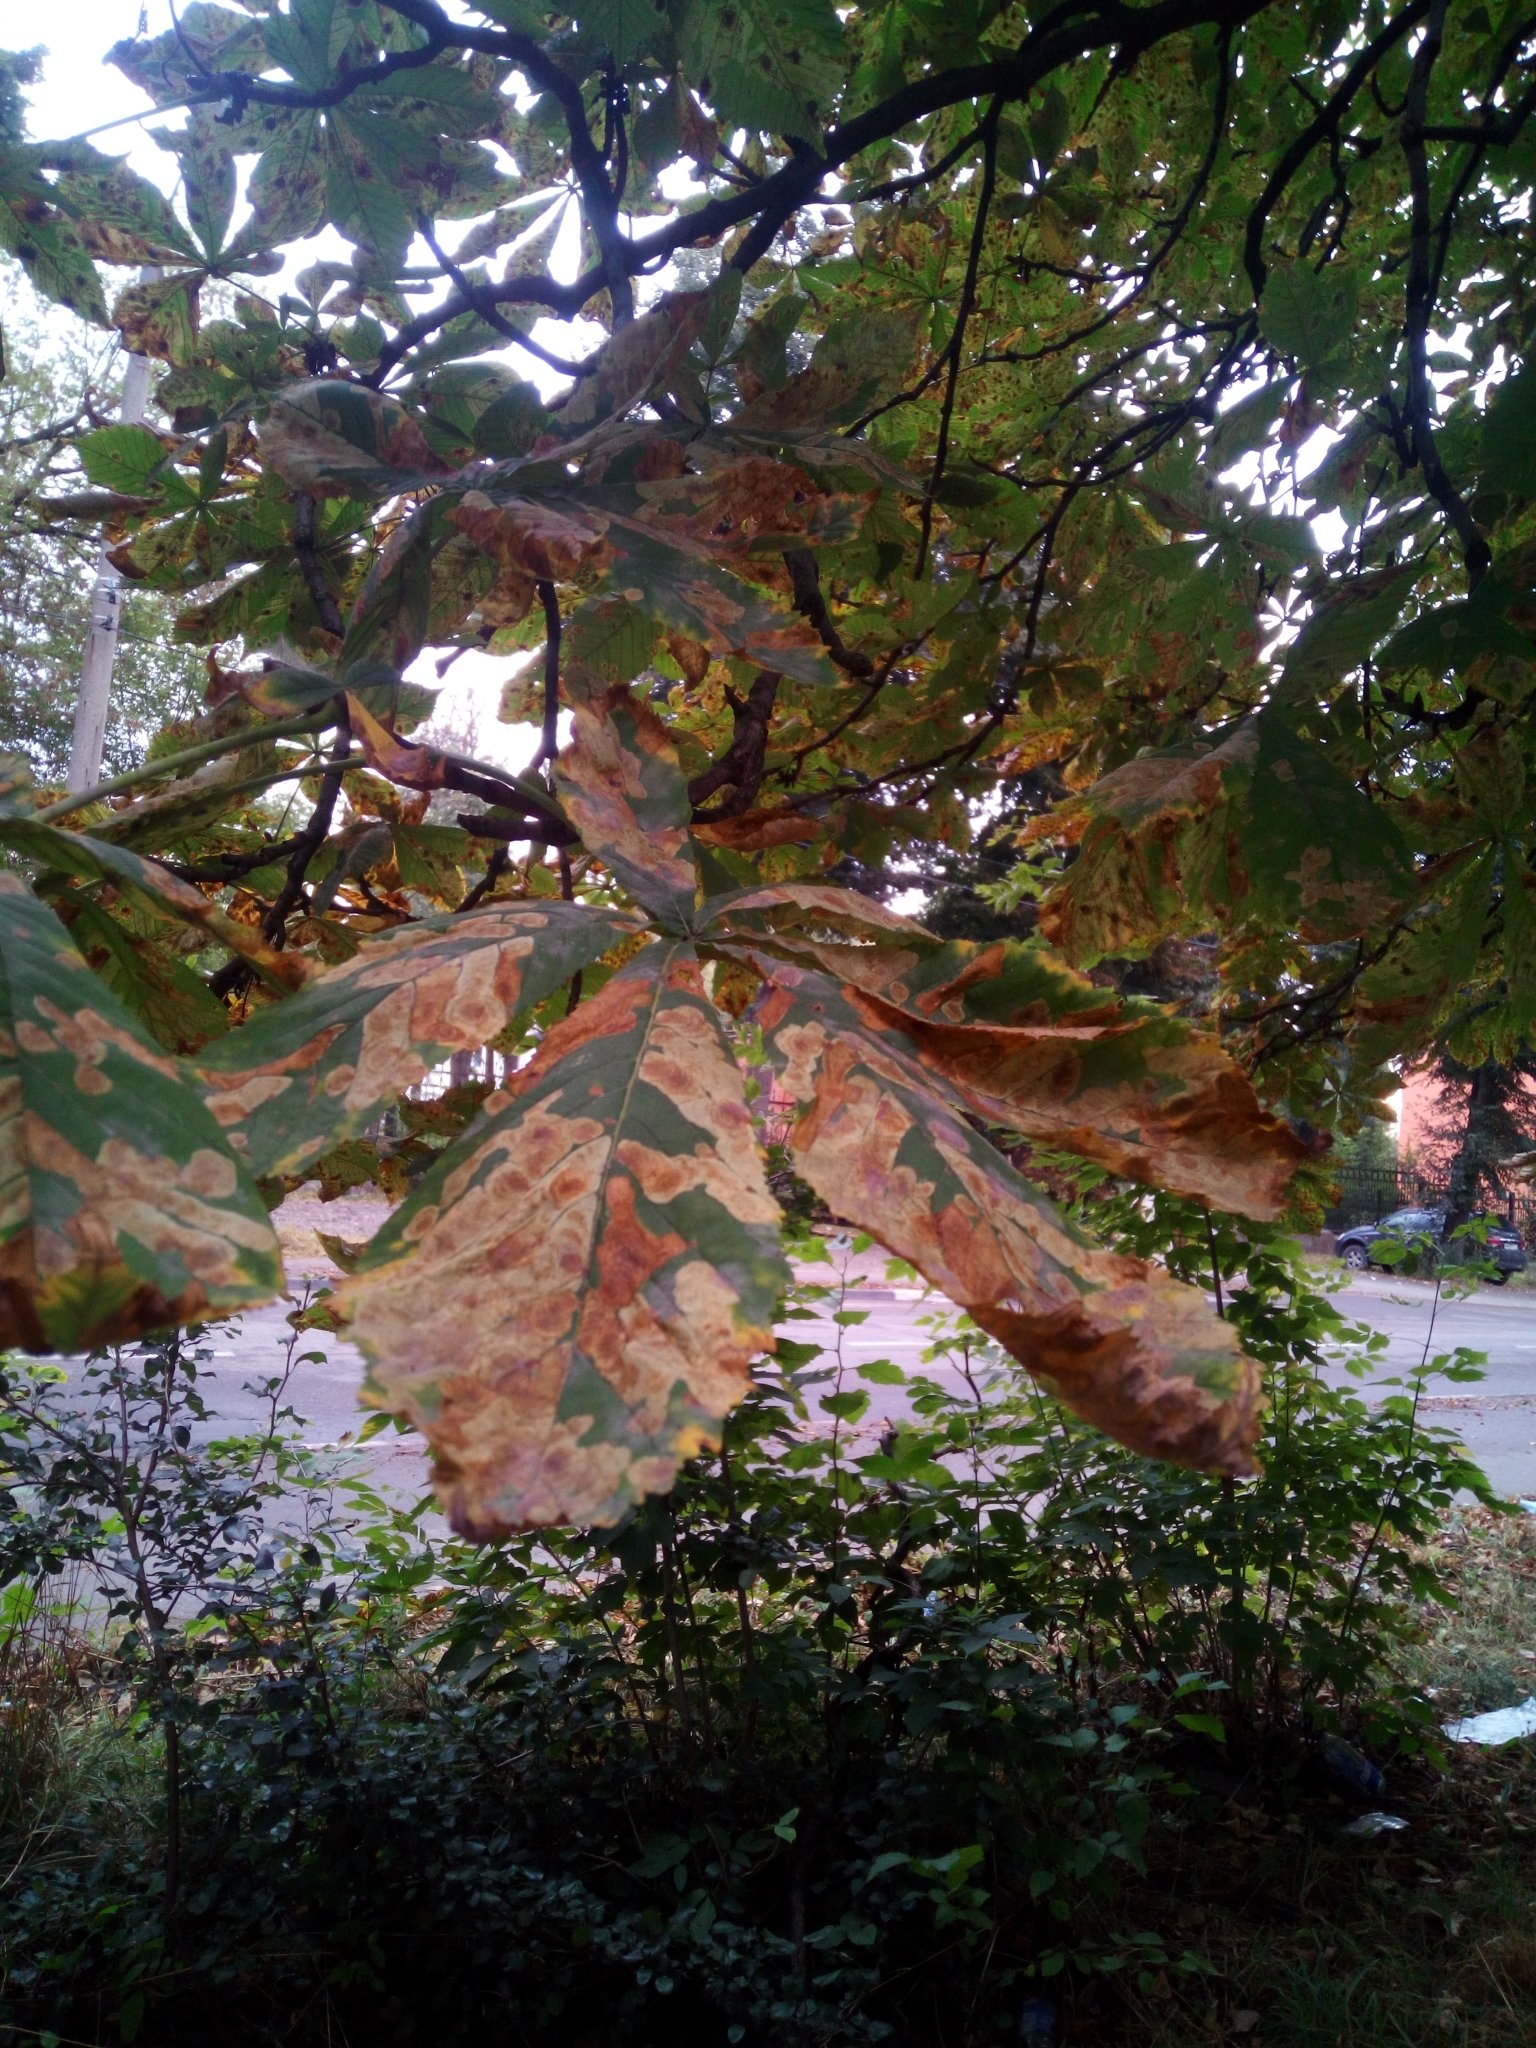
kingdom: Animalia
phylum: Arthropoda
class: Insecta
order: Lepidoptera
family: Gracillariidae
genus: Cameraria
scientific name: Cameraria ohridella
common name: Horse-chestnut leaf-miner
